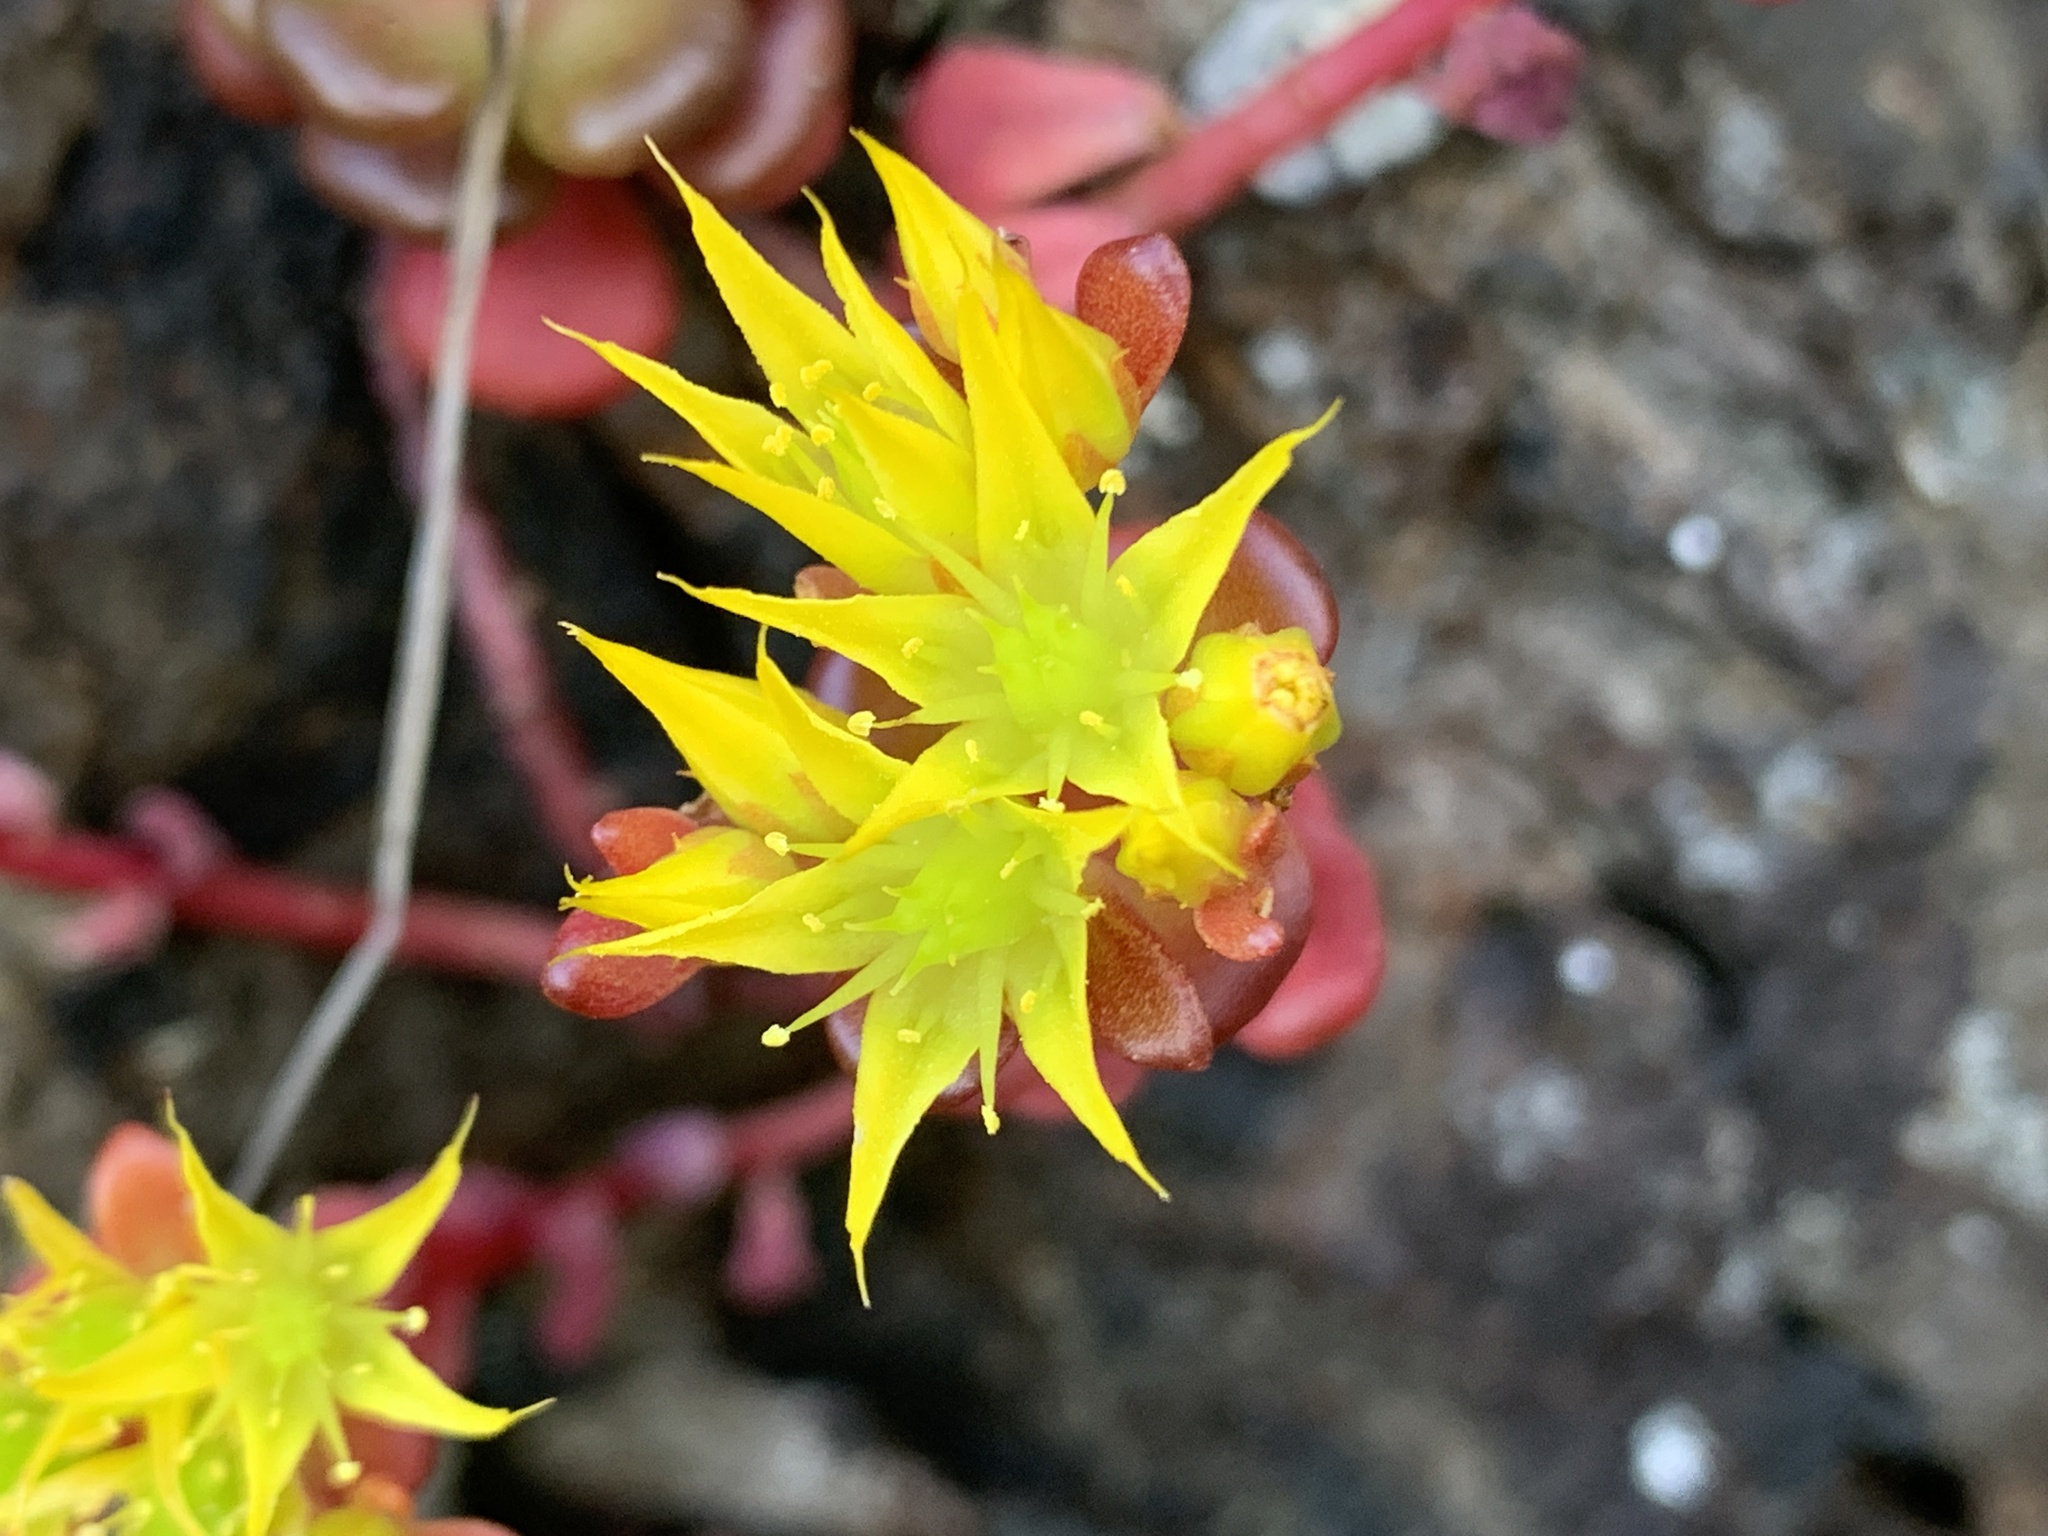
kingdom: Plantae
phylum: Tracheophyta
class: Magnoliopsida
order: Saxifragales
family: Crassulaceae
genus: Sedum
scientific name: Sedum oreganum
